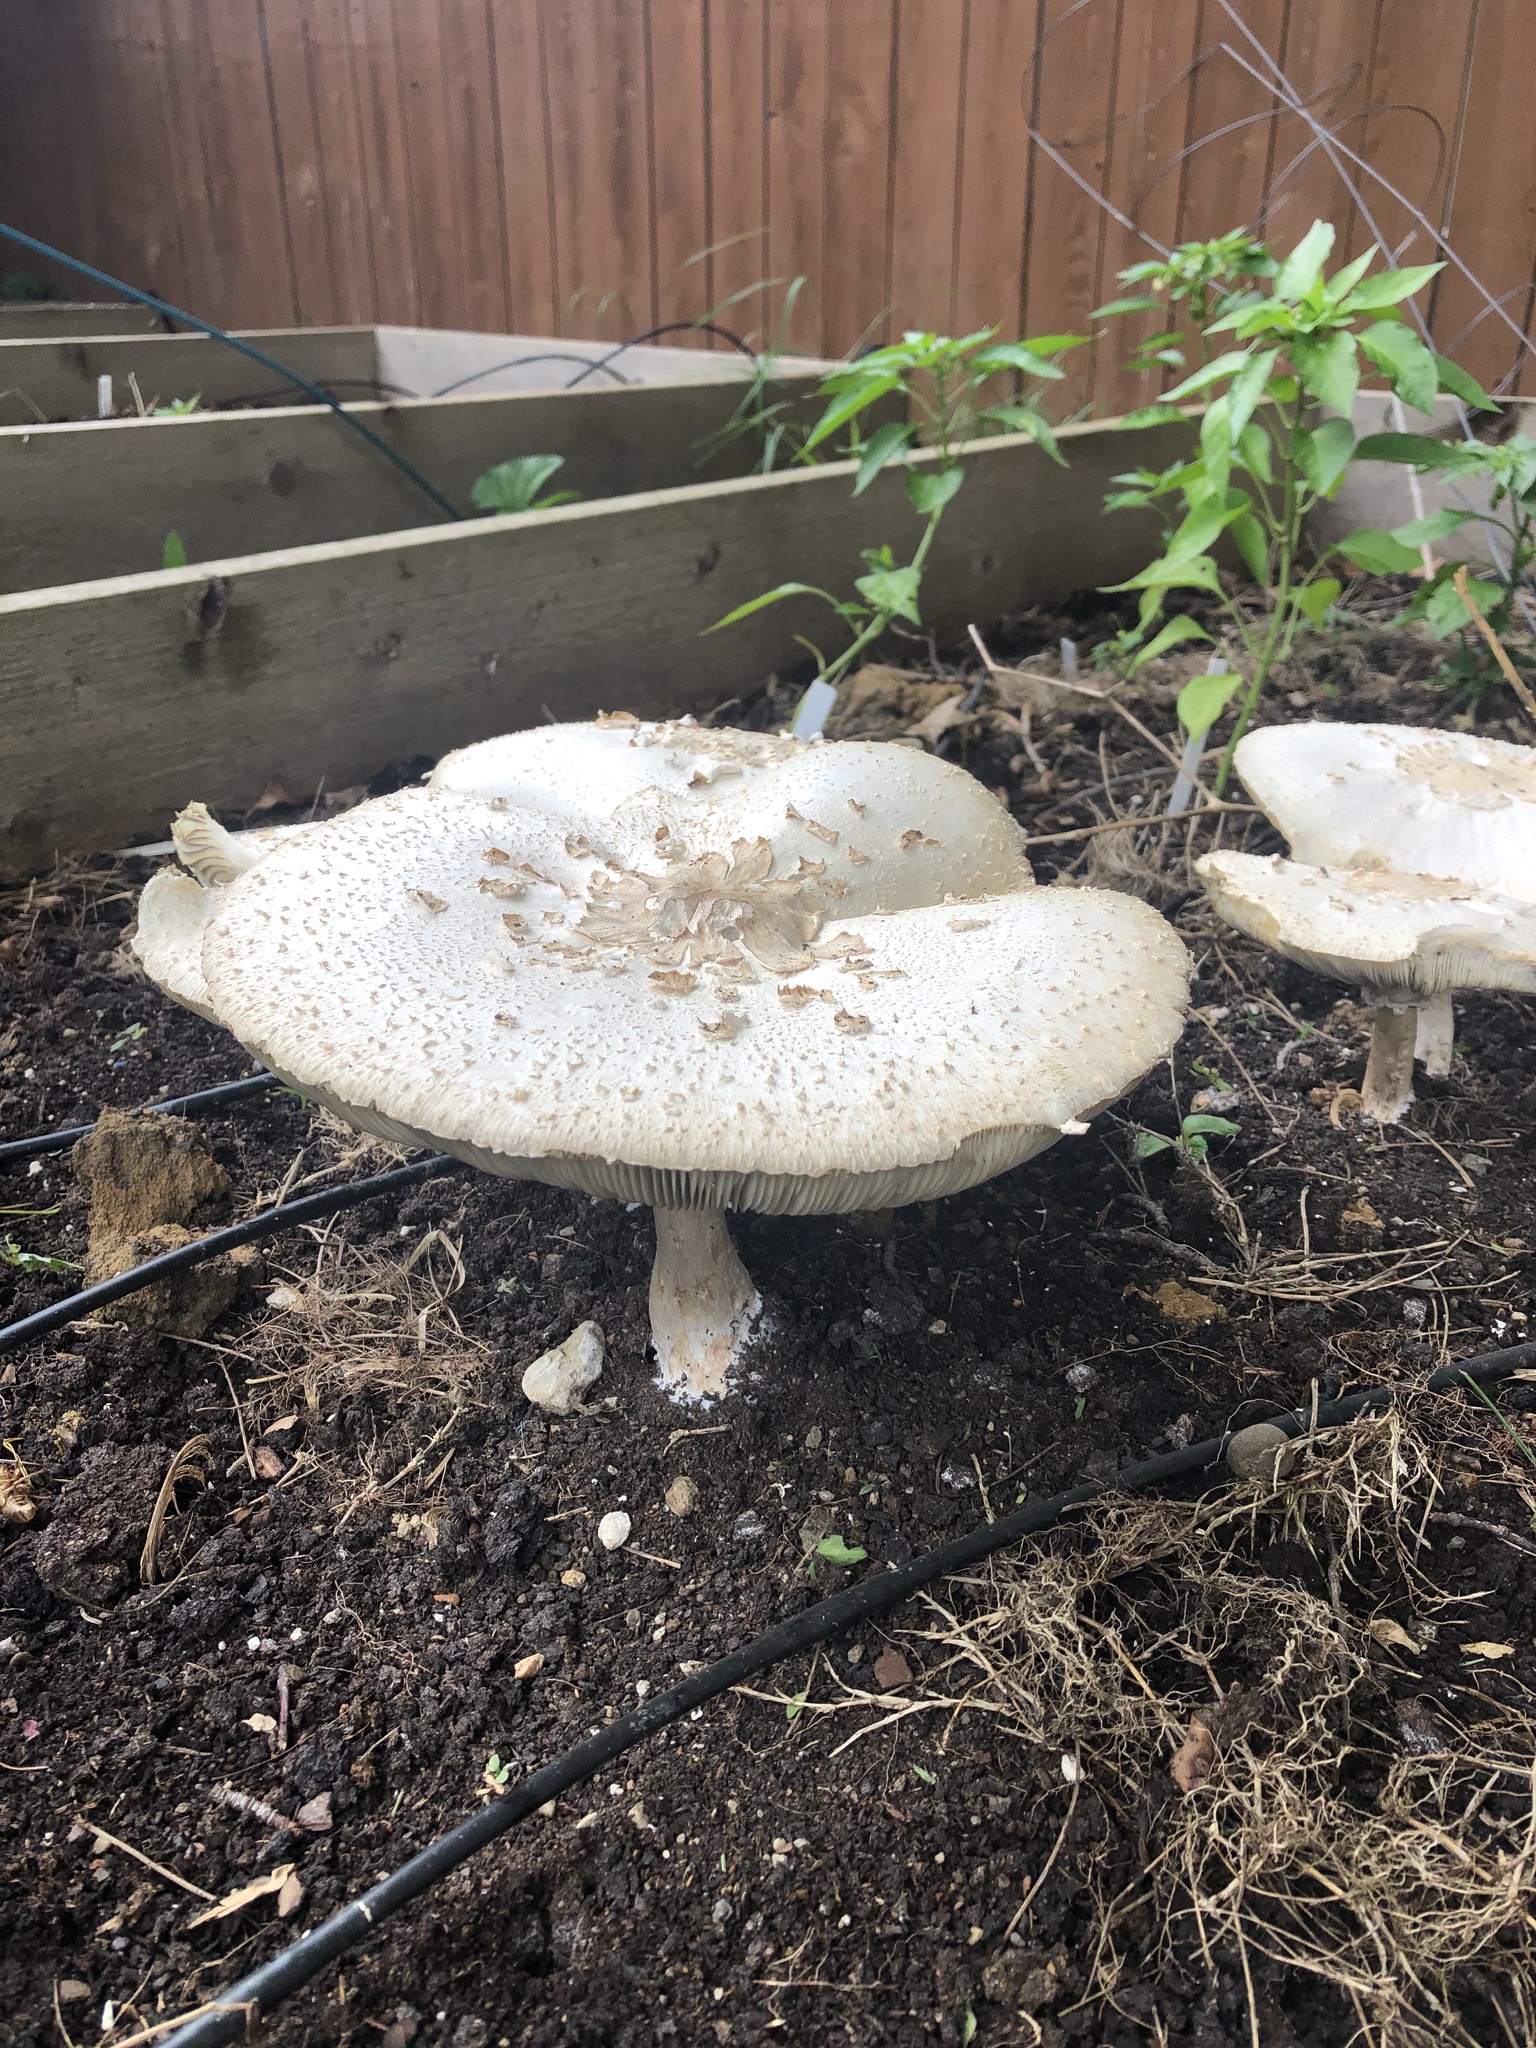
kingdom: Fungi
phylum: Basidiomycota
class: Agaricomycetes
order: Agaricales
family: Agaricaceae
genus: Chlorophyllum
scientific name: Chlorophyllum molybdites
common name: False parasol
